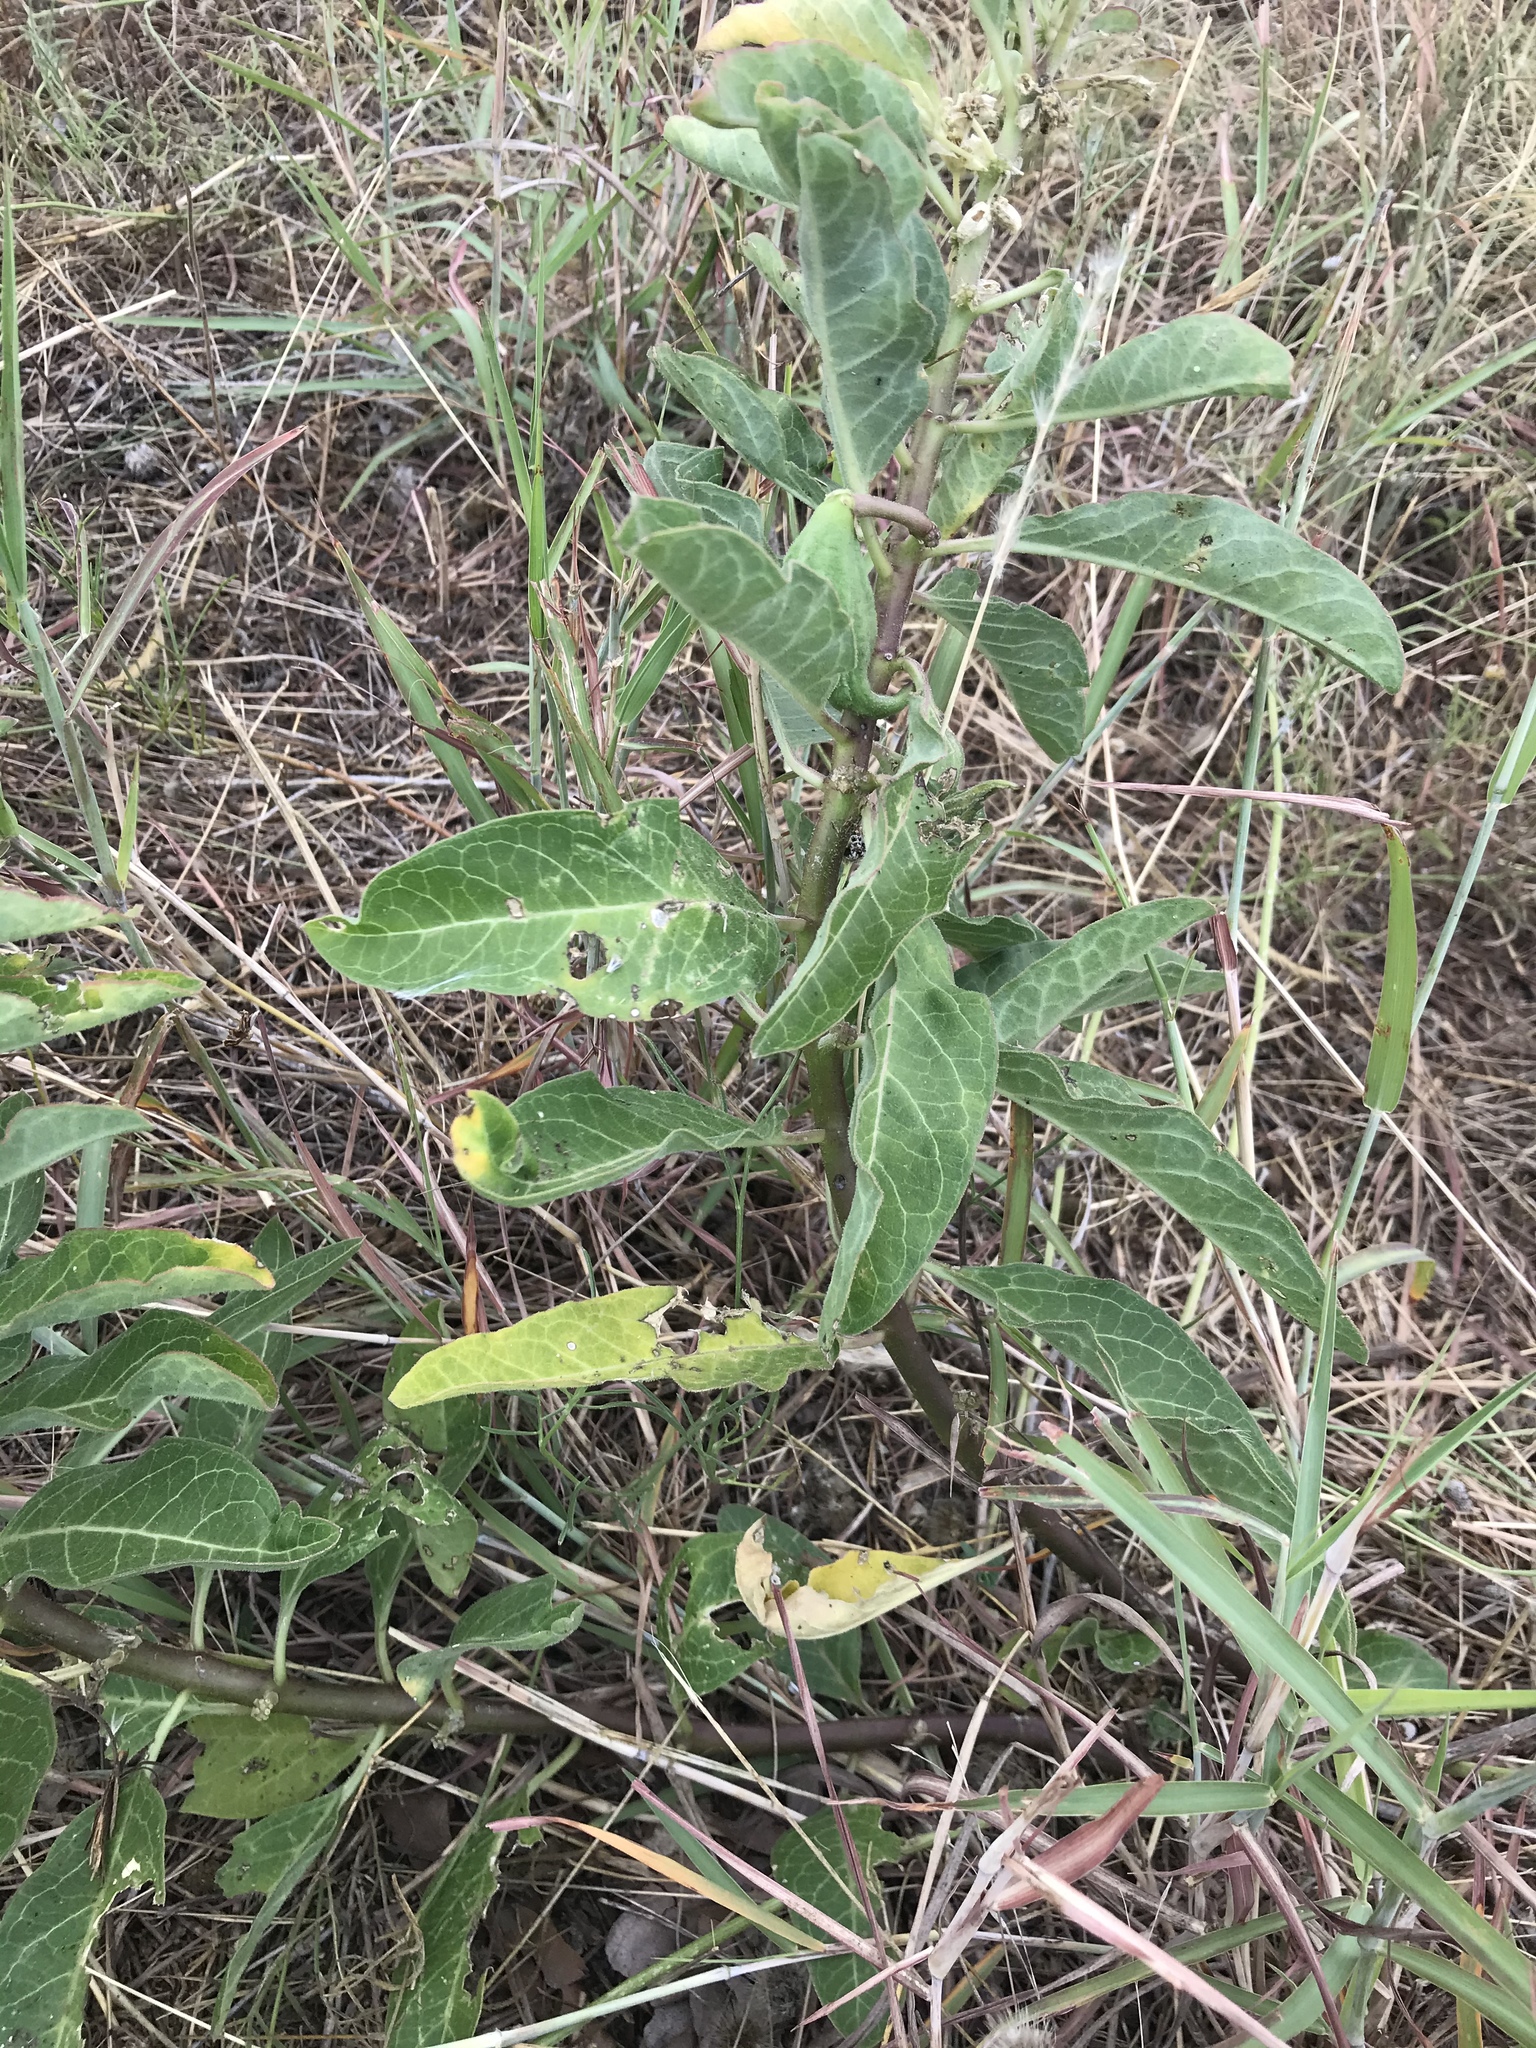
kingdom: Plantae
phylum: Tracheophyta
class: Magnoliopsida
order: Gentianales
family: Apocynaceae
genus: Asclepias
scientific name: Asclepias oenotheroides
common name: Zizotes milkweed
